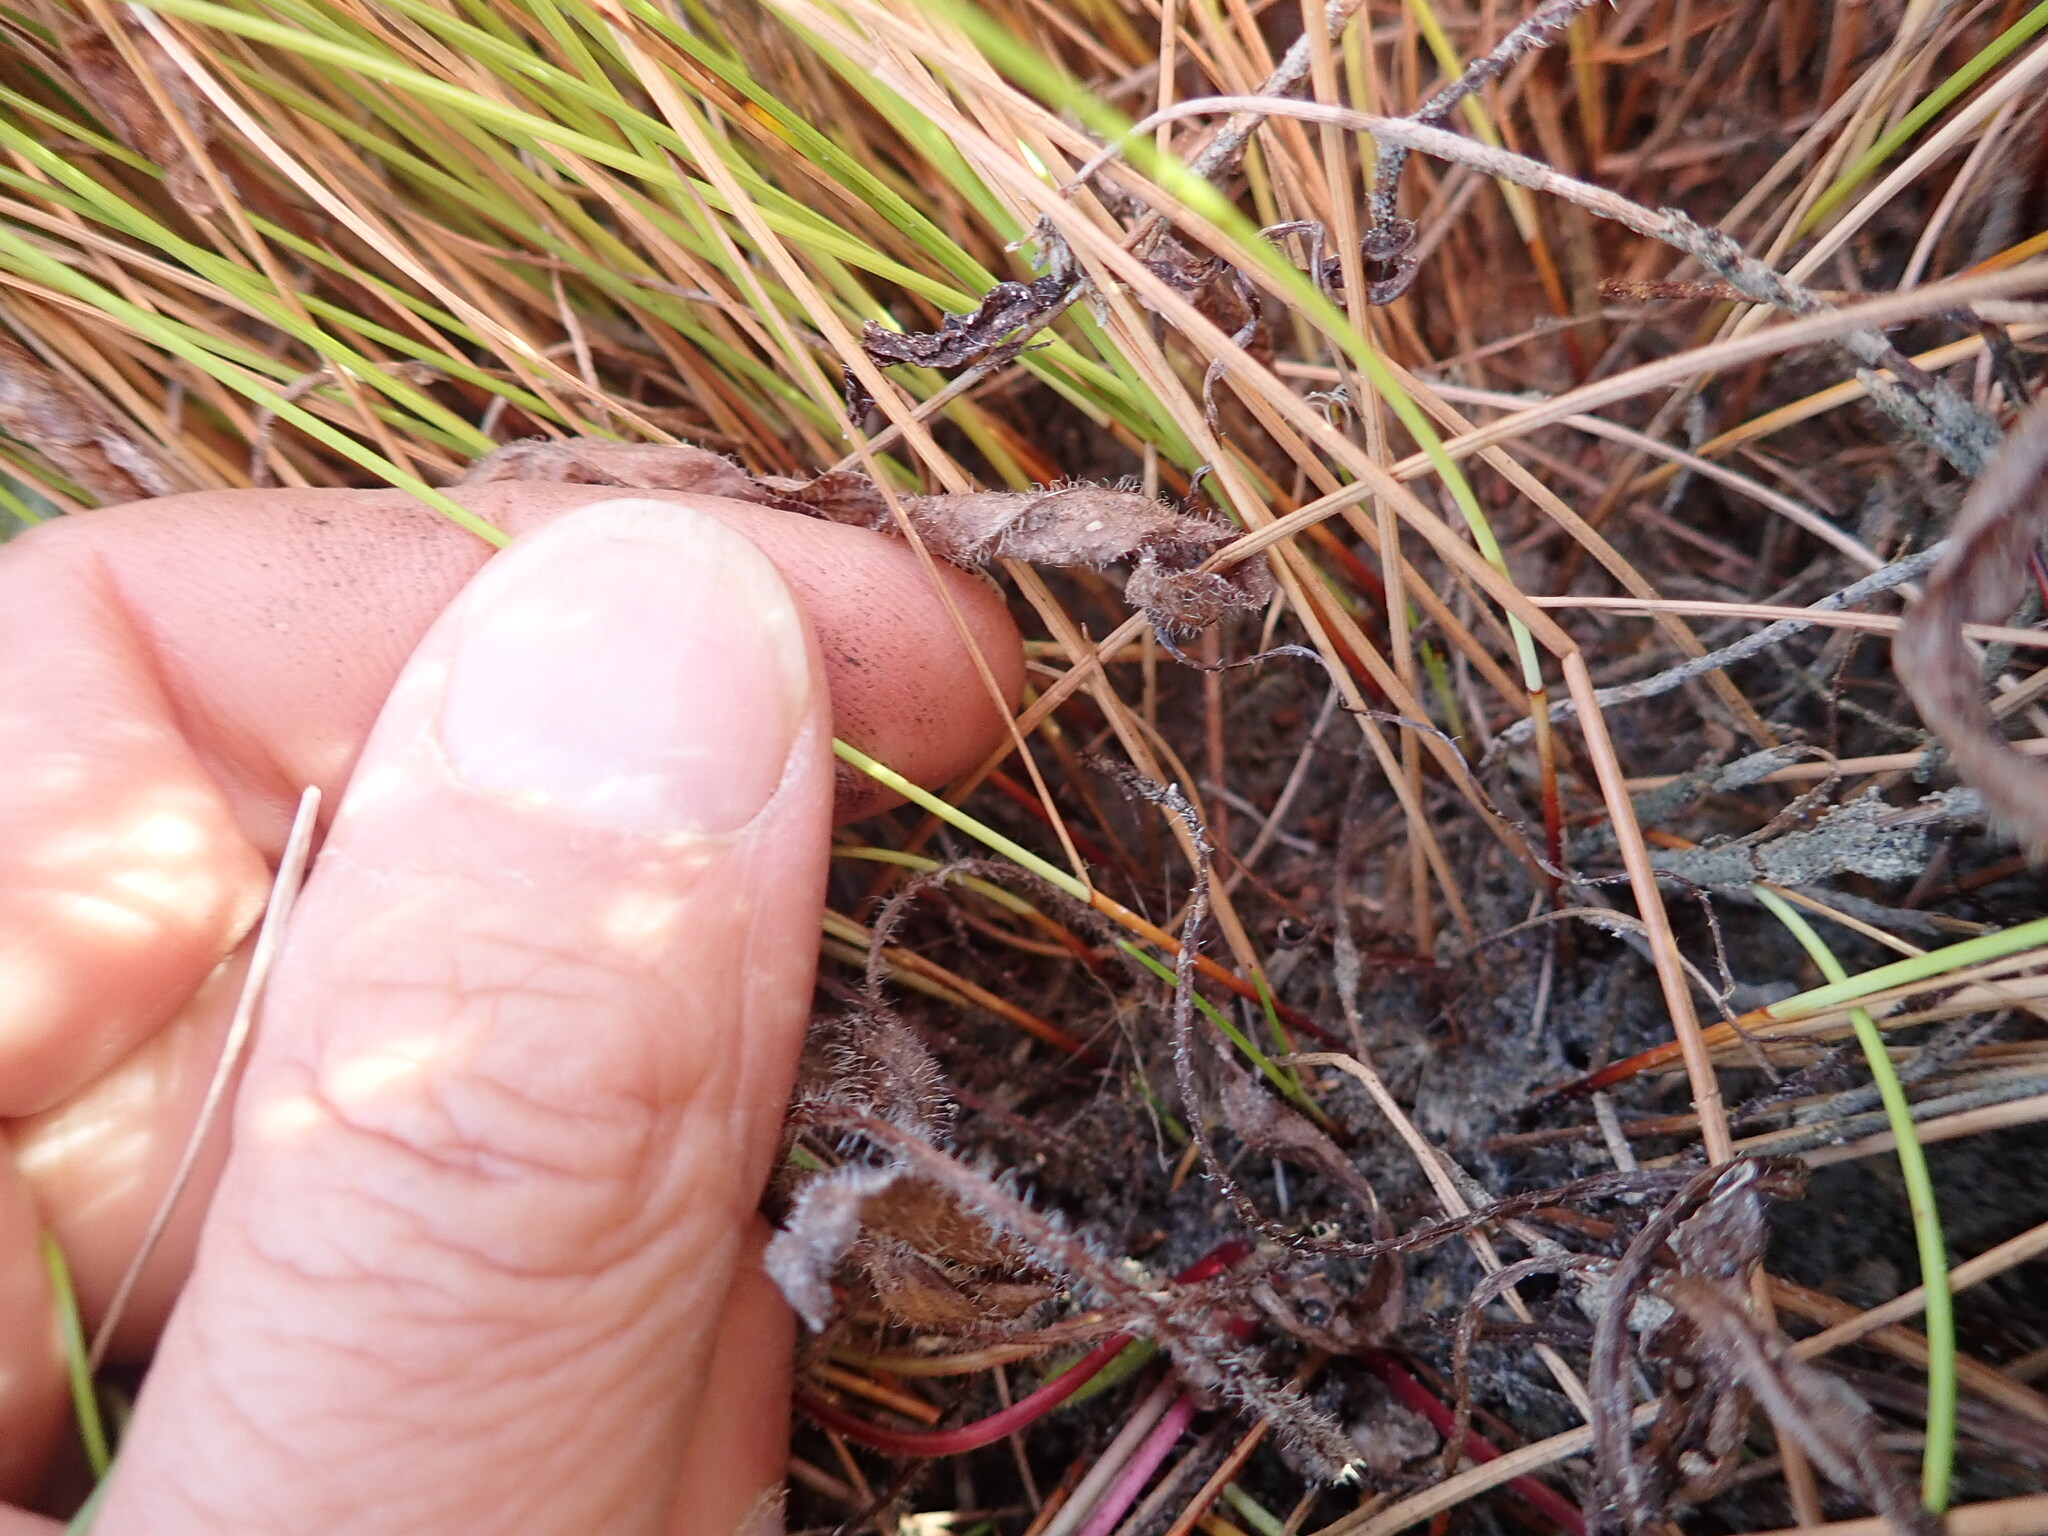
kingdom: Plantae
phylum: Tracheophyta
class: Liliopsida
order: Poales
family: Cyperaceae
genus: Schoenus
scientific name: Schoenus nitens
